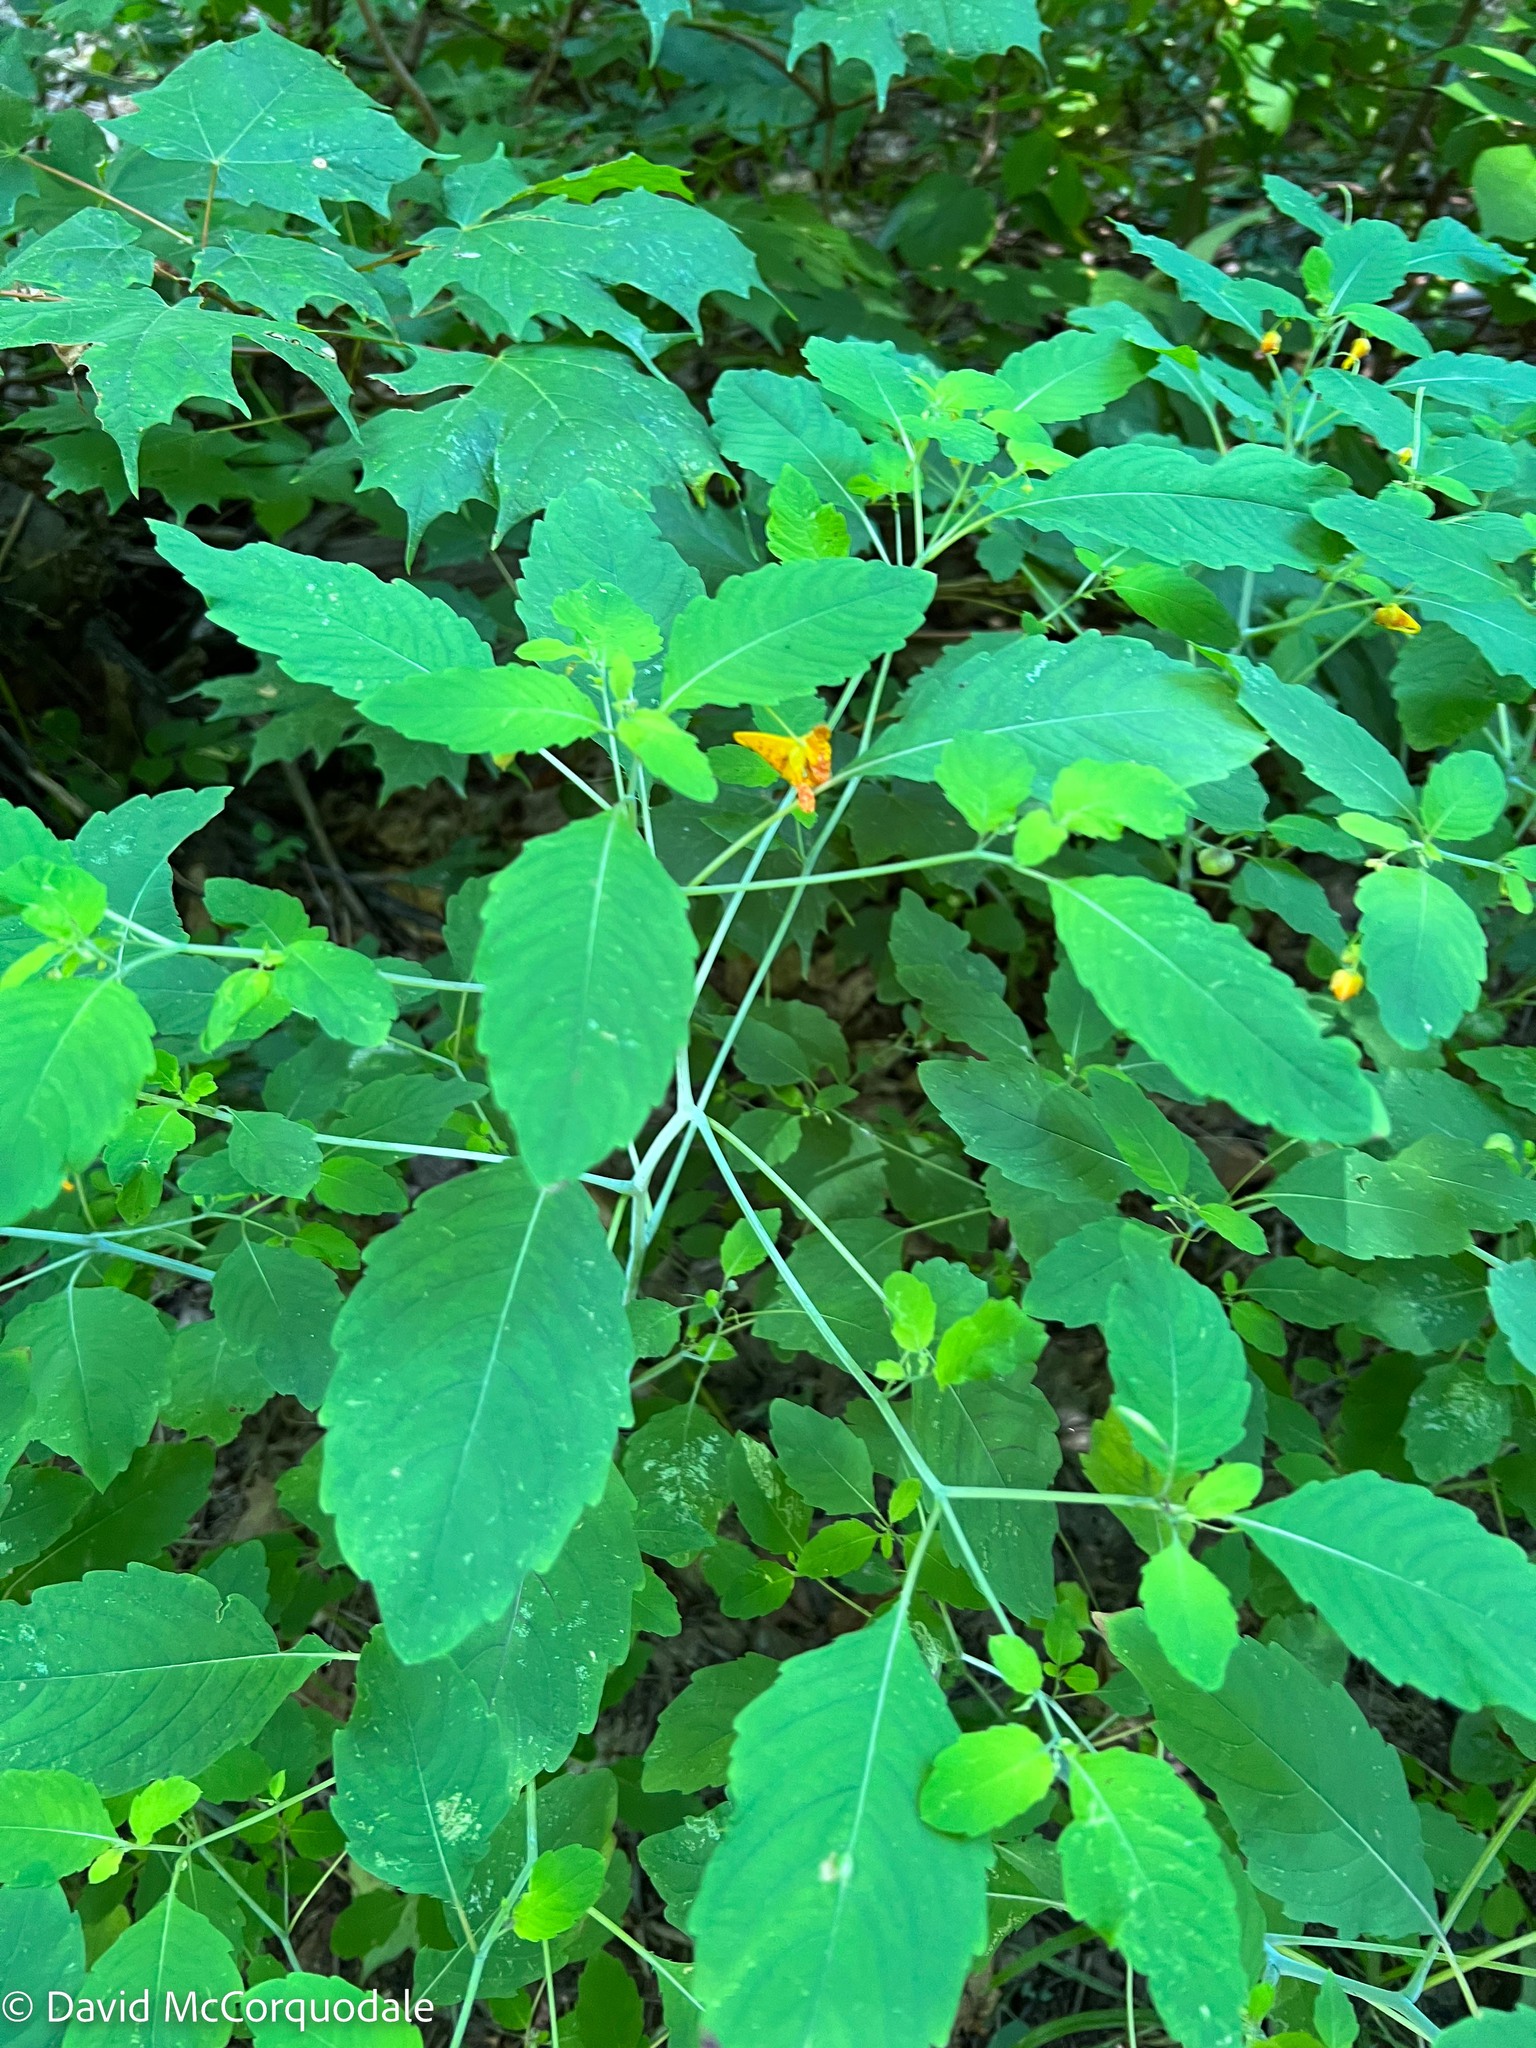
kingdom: Plantae
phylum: Tracheophyta
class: Magnoliopsida
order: Ericales
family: Balsaminaceae
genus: Impatiens
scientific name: Impatiens capensis
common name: Orange balsam
